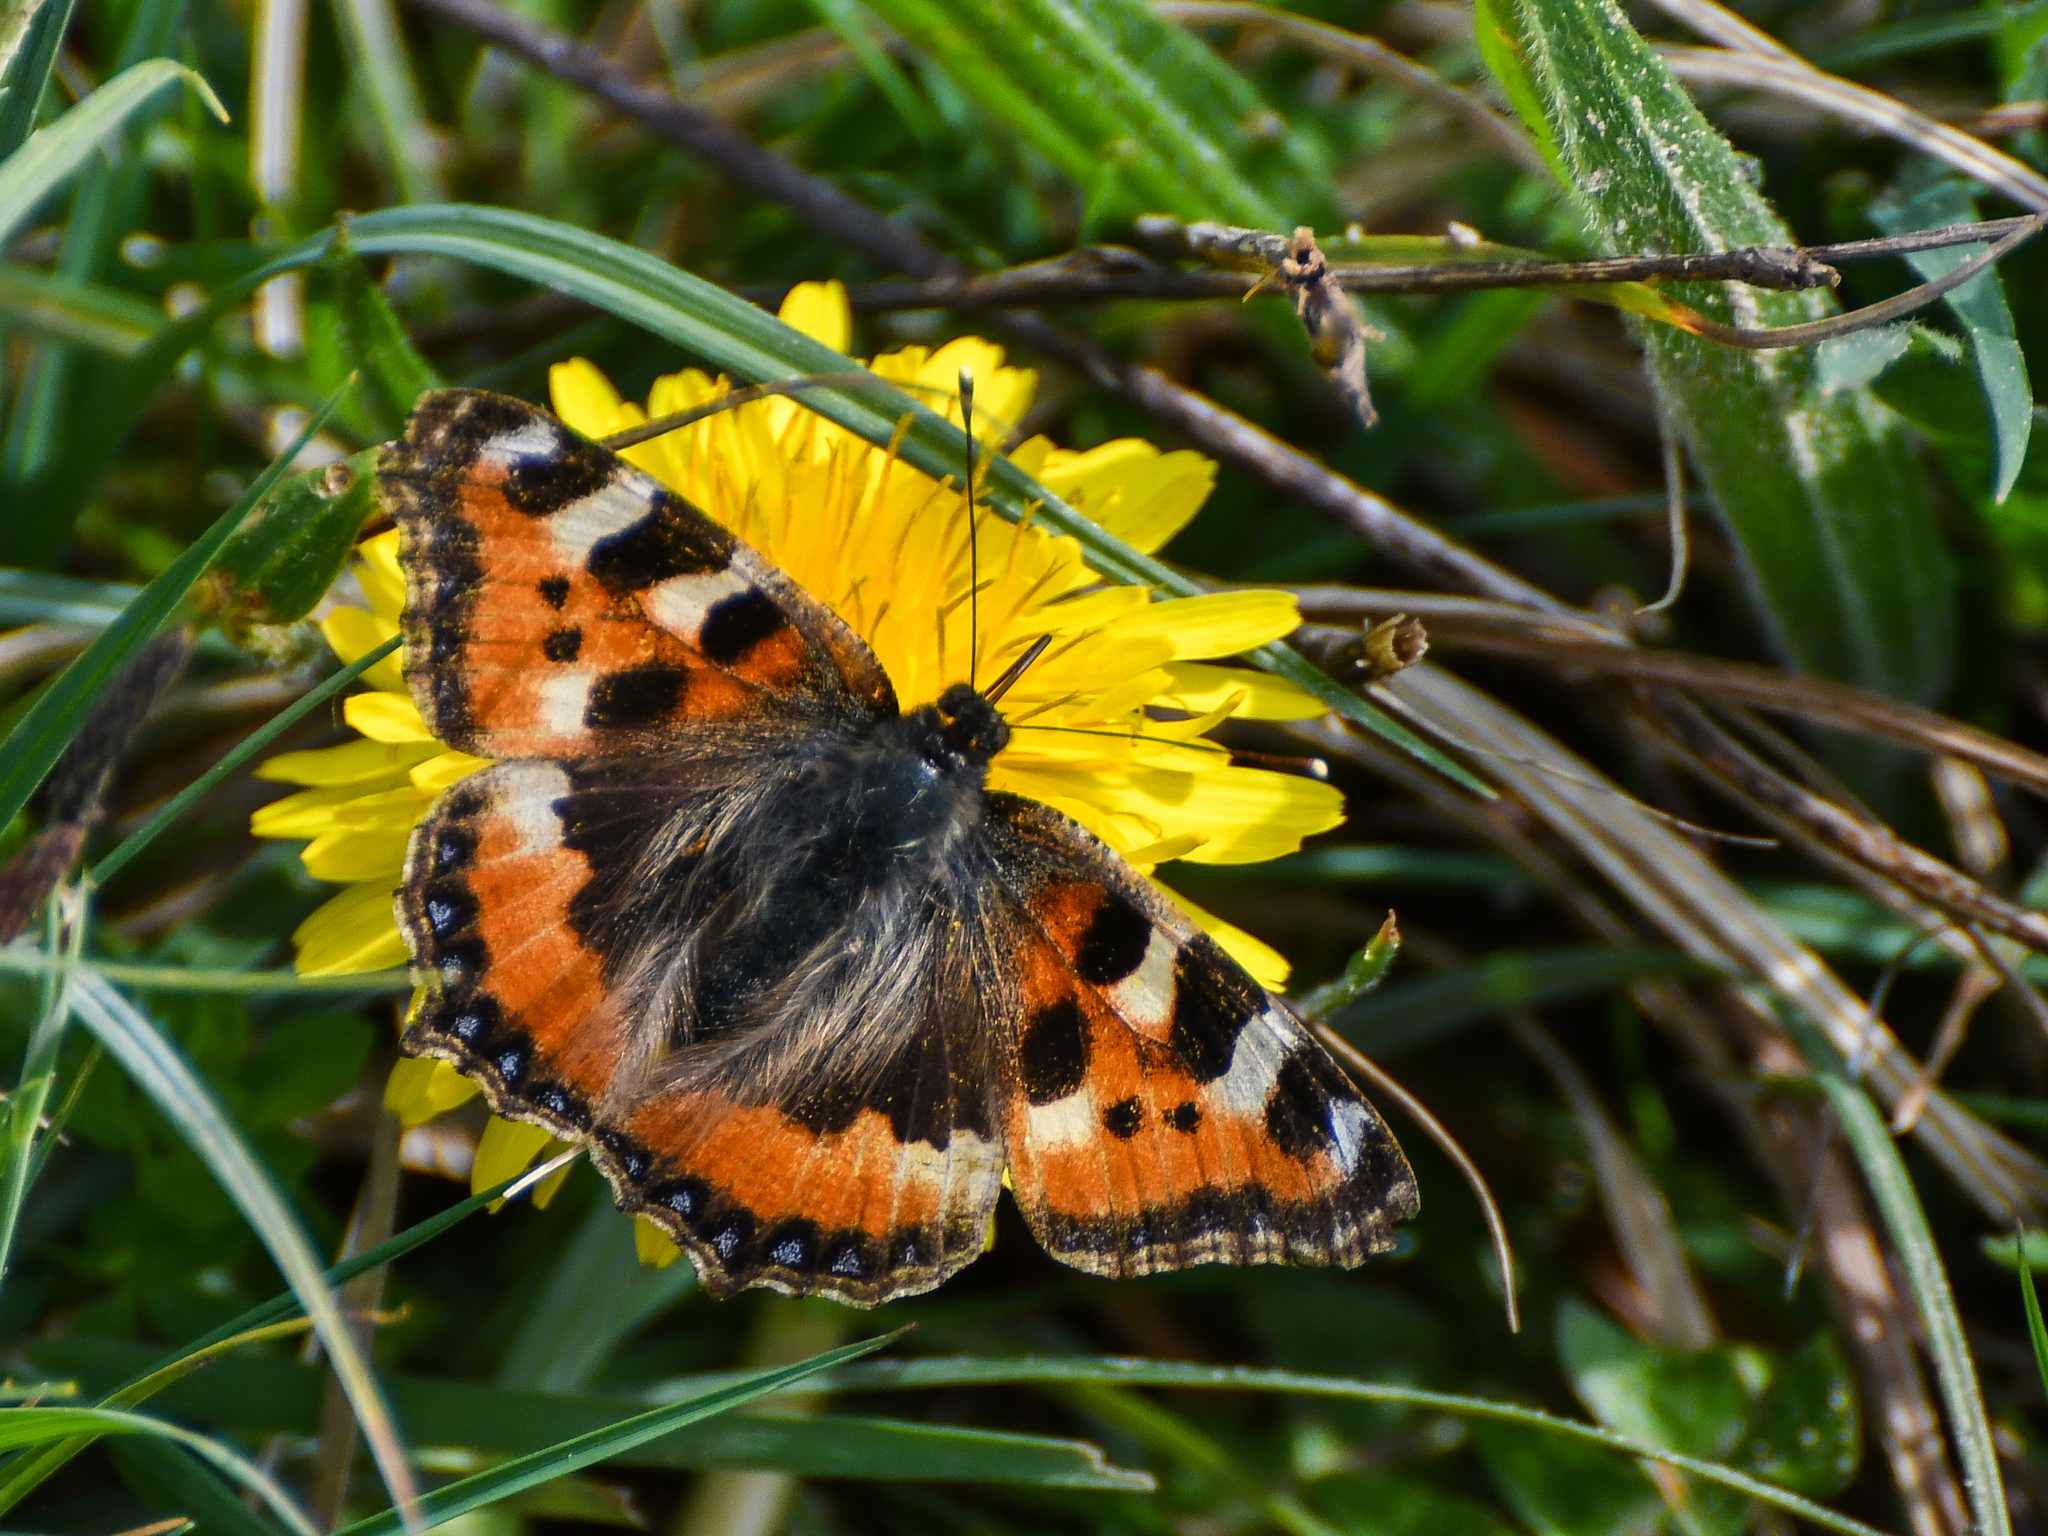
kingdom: Animalia
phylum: Arthropoda
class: Insecta
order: Lepidoptera
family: Nymphalidae
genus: Aglais
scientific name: Aglais urticae
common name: Small tortoiseshell
